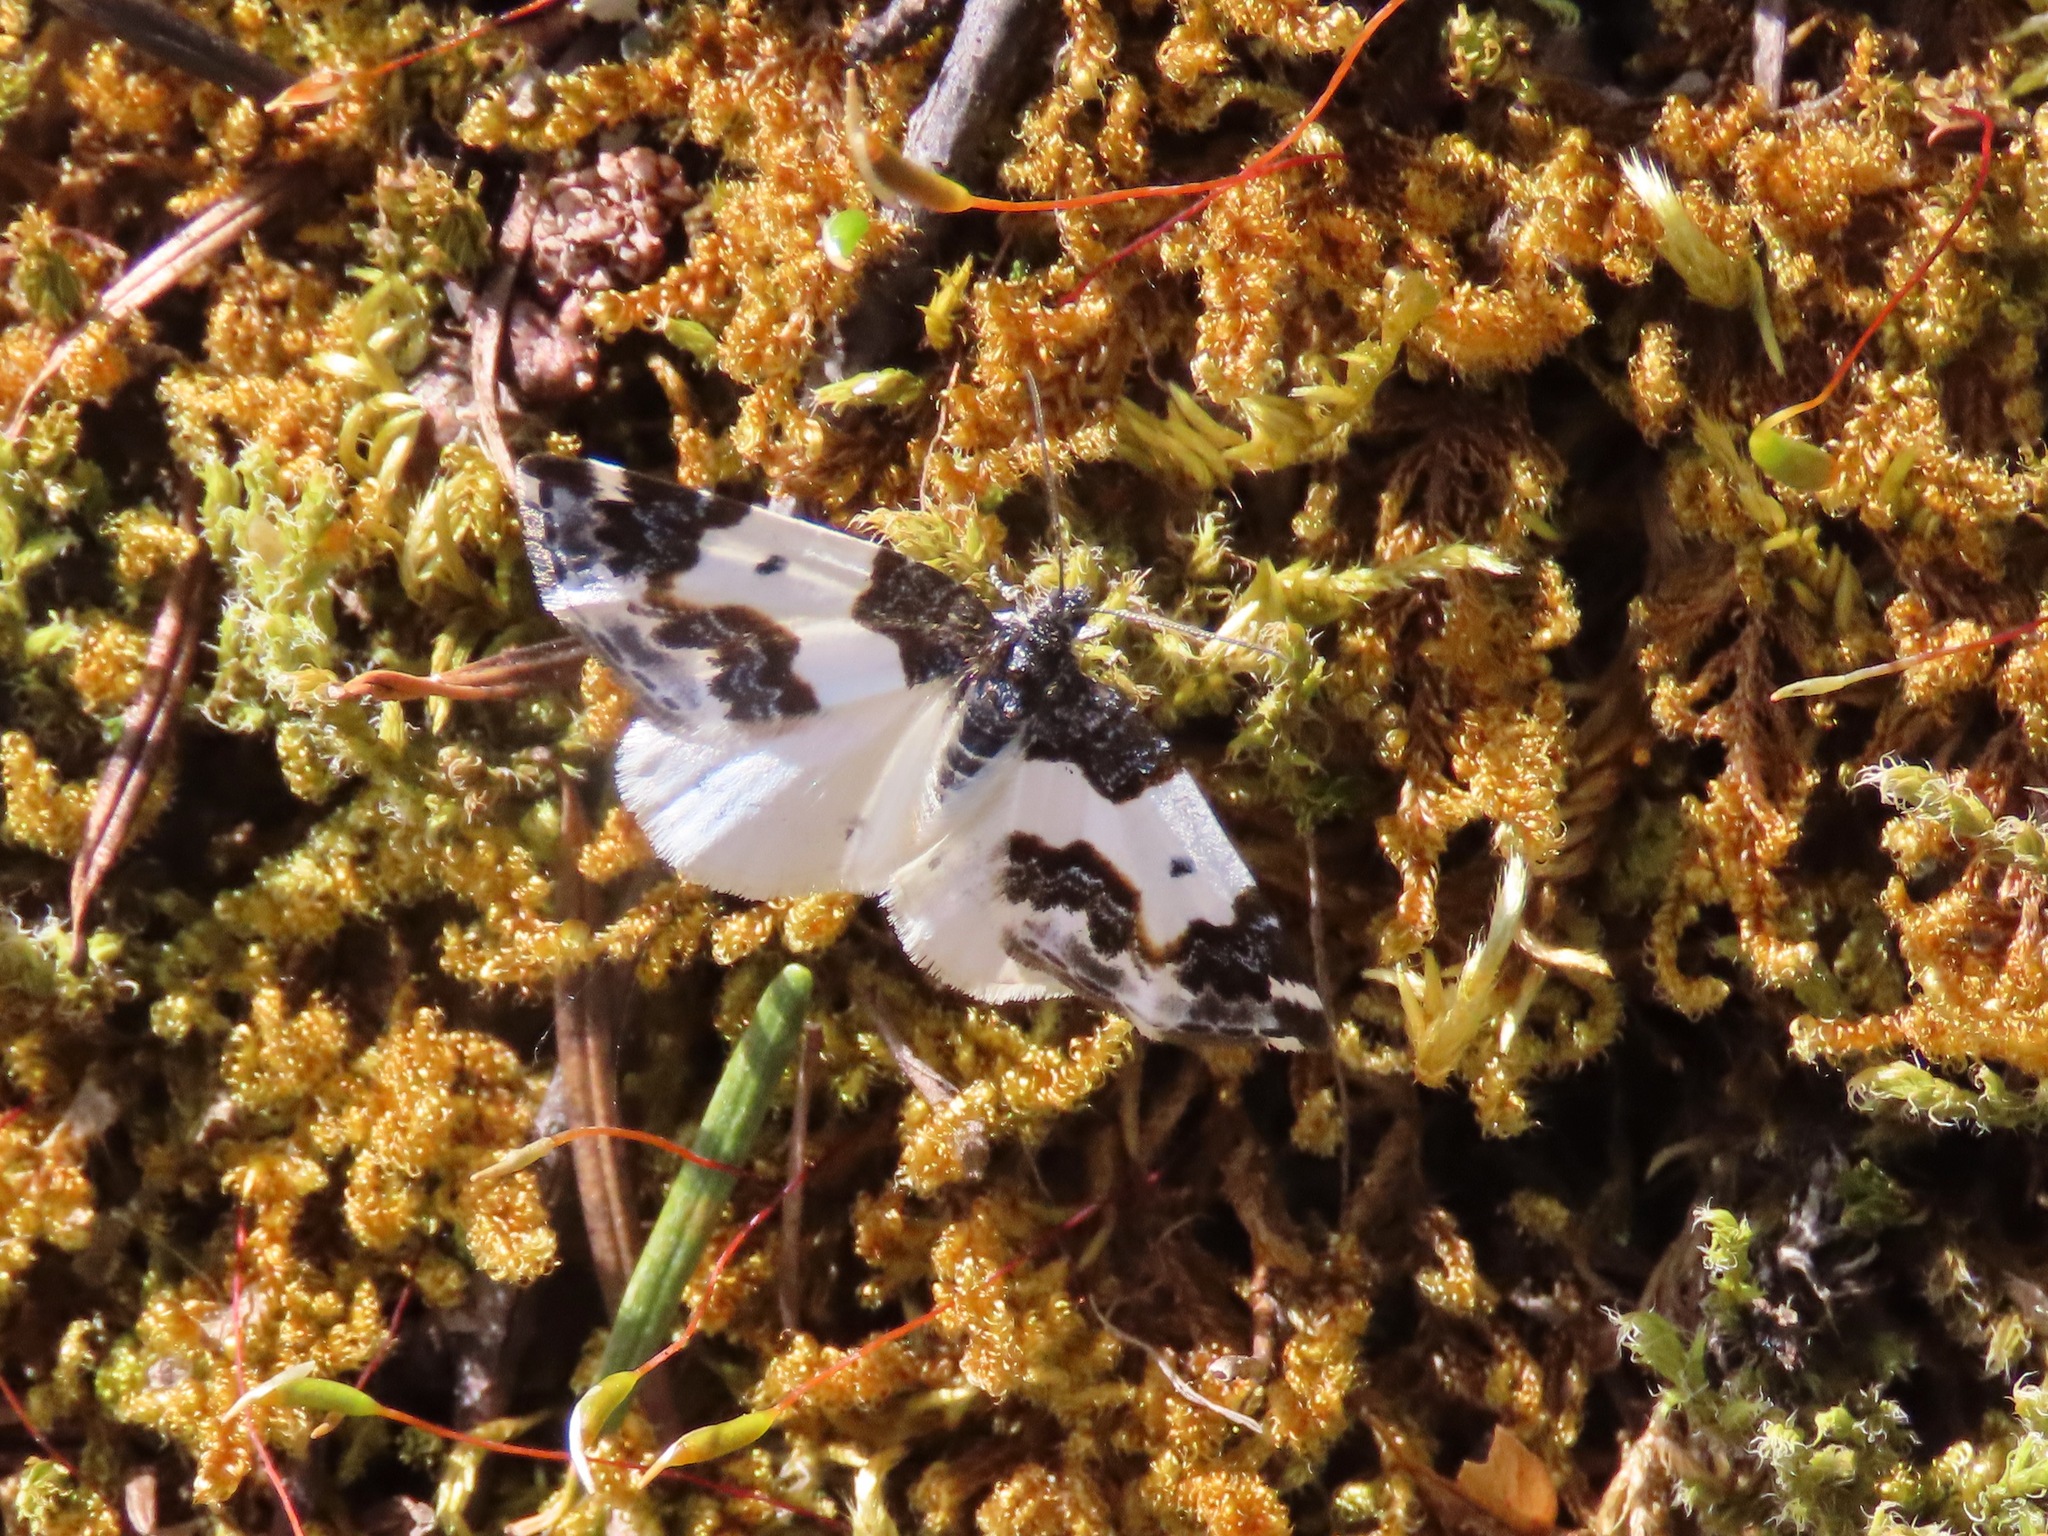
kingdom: Animalia
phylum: Arthropoda
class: Insecta
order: Lepidoptera
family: Geometridae
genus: Mesoleuca
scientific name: Mesoleuca gratulata
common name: Half-white carpet moth
